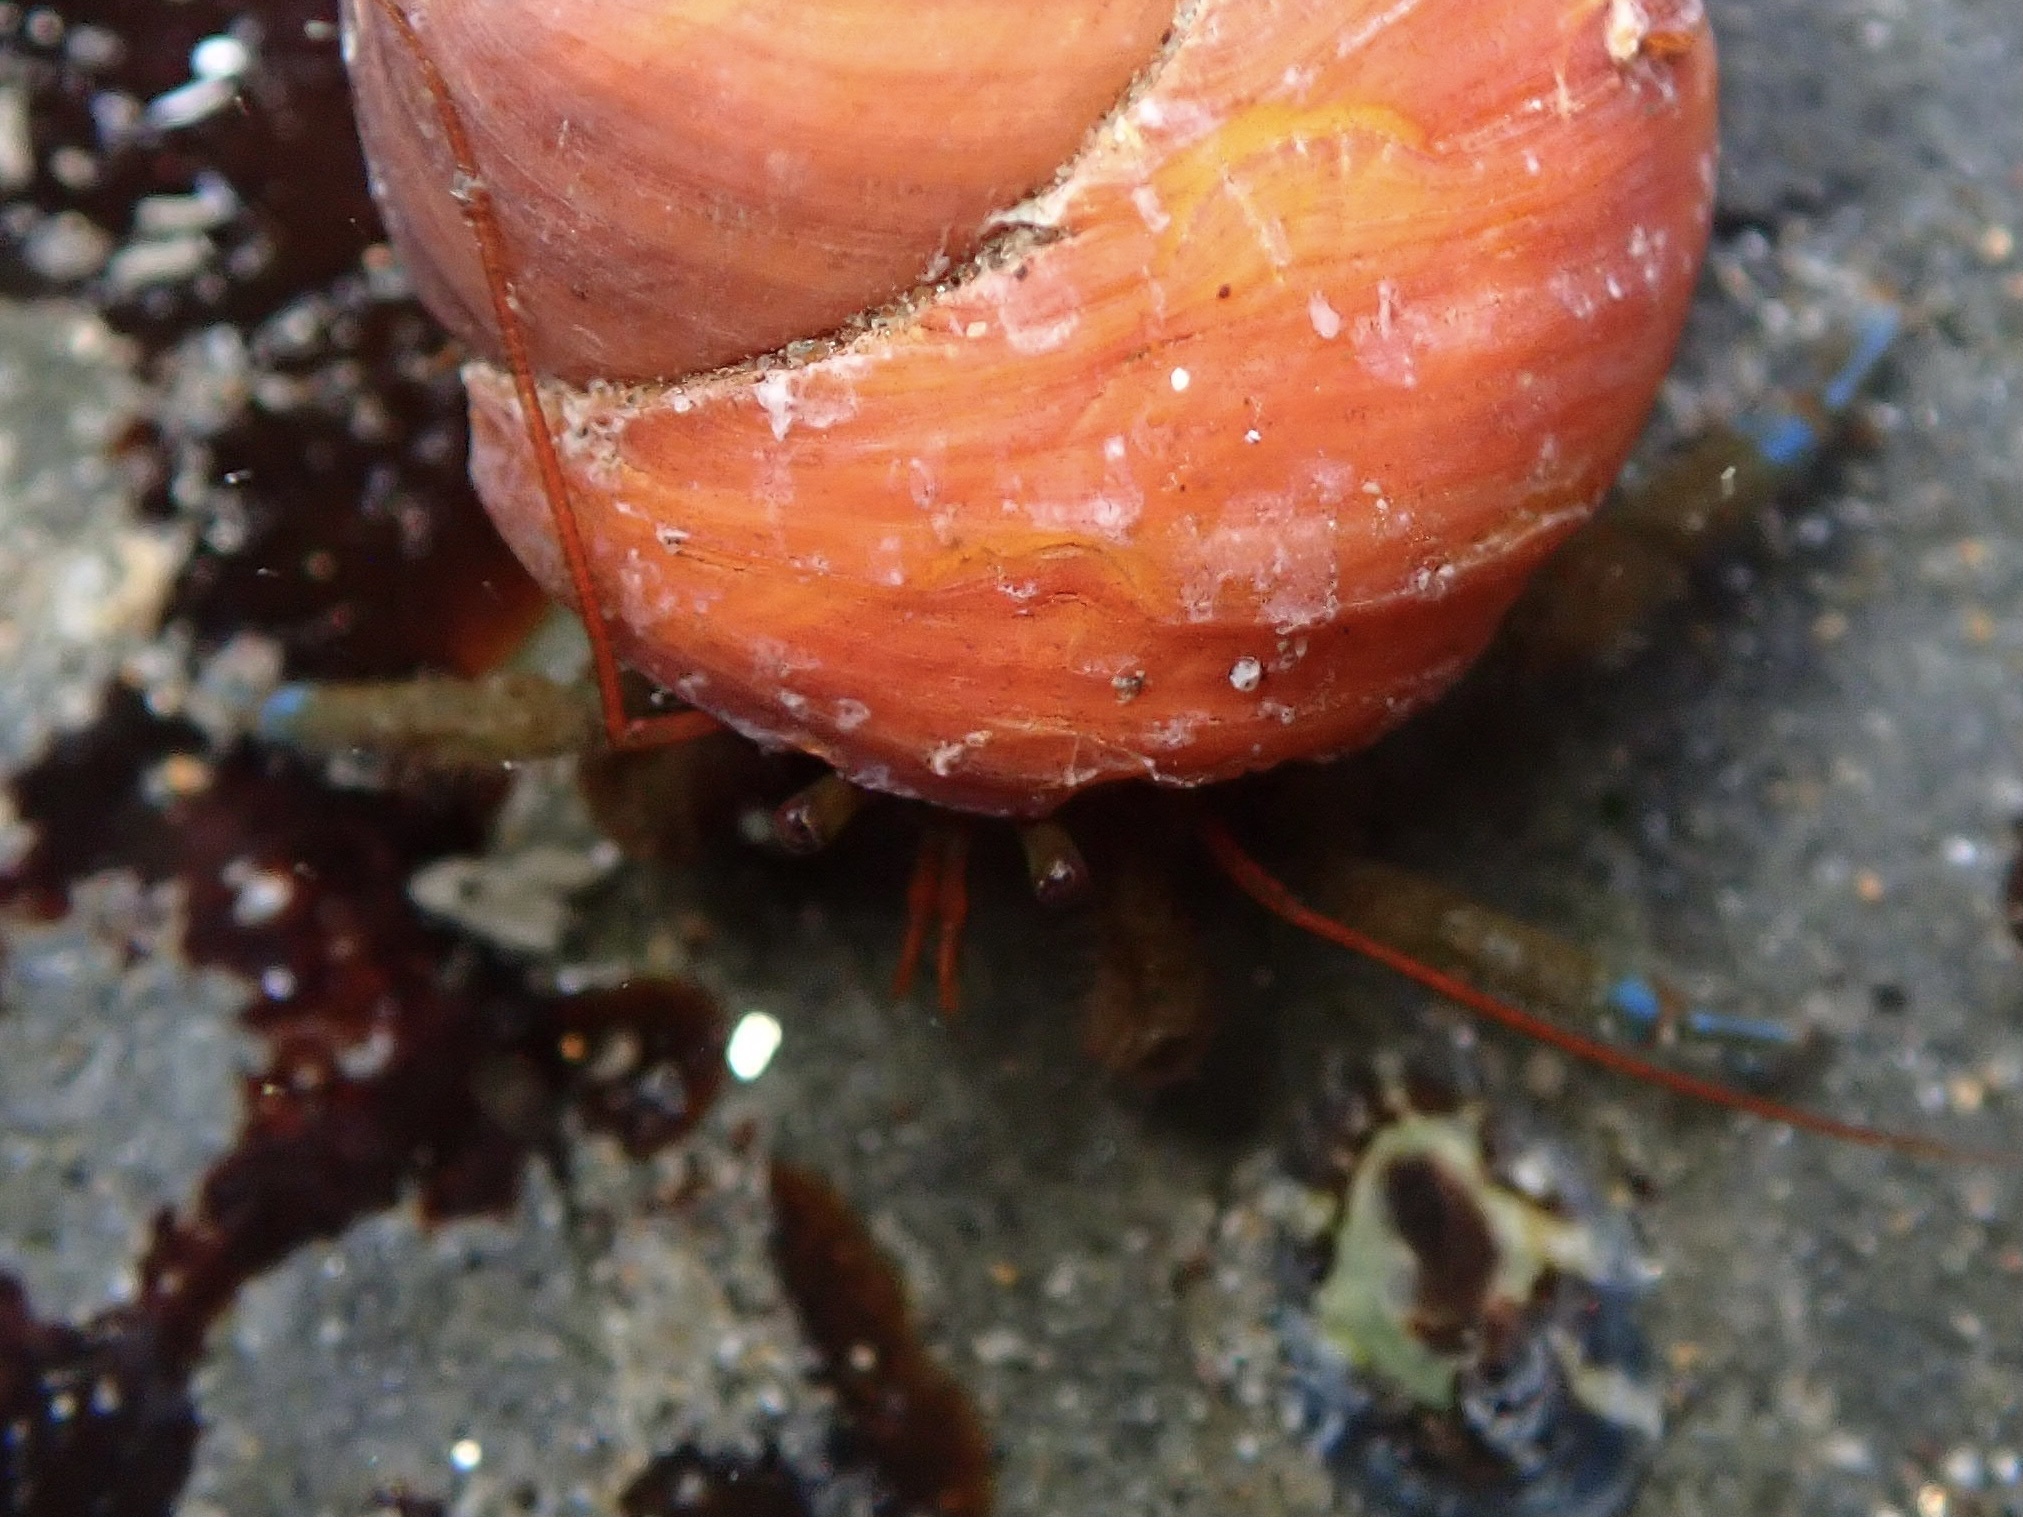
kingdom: Animalia
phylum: Arthropoda
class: Malacostraca
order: Decapoda
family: Paguridae
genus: Pagurus
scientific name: Pagurus samuelis
